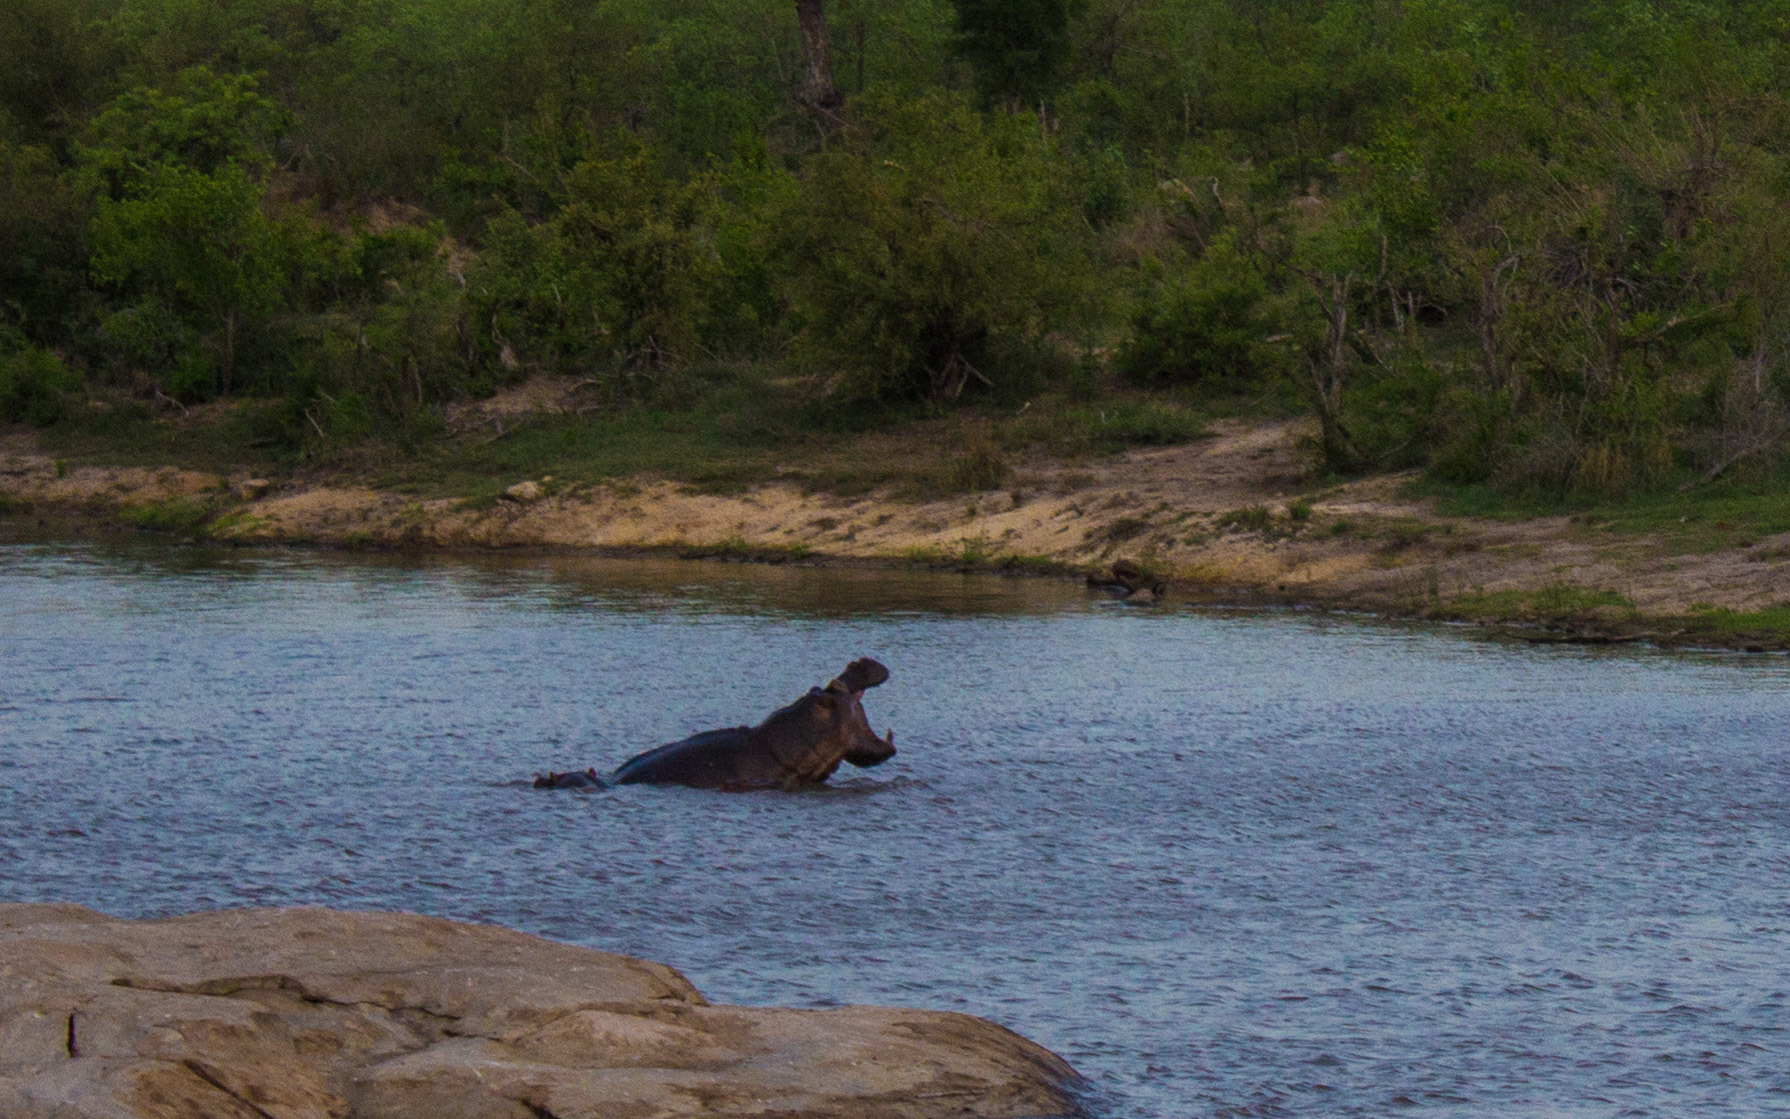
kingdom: Animalia
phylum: Chordata
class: Mammalia
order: Artiodactyla
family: Hippopotamidae
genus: Hippopotamus
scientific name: Hippopotamus amphibius
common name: Common hippopotamus
